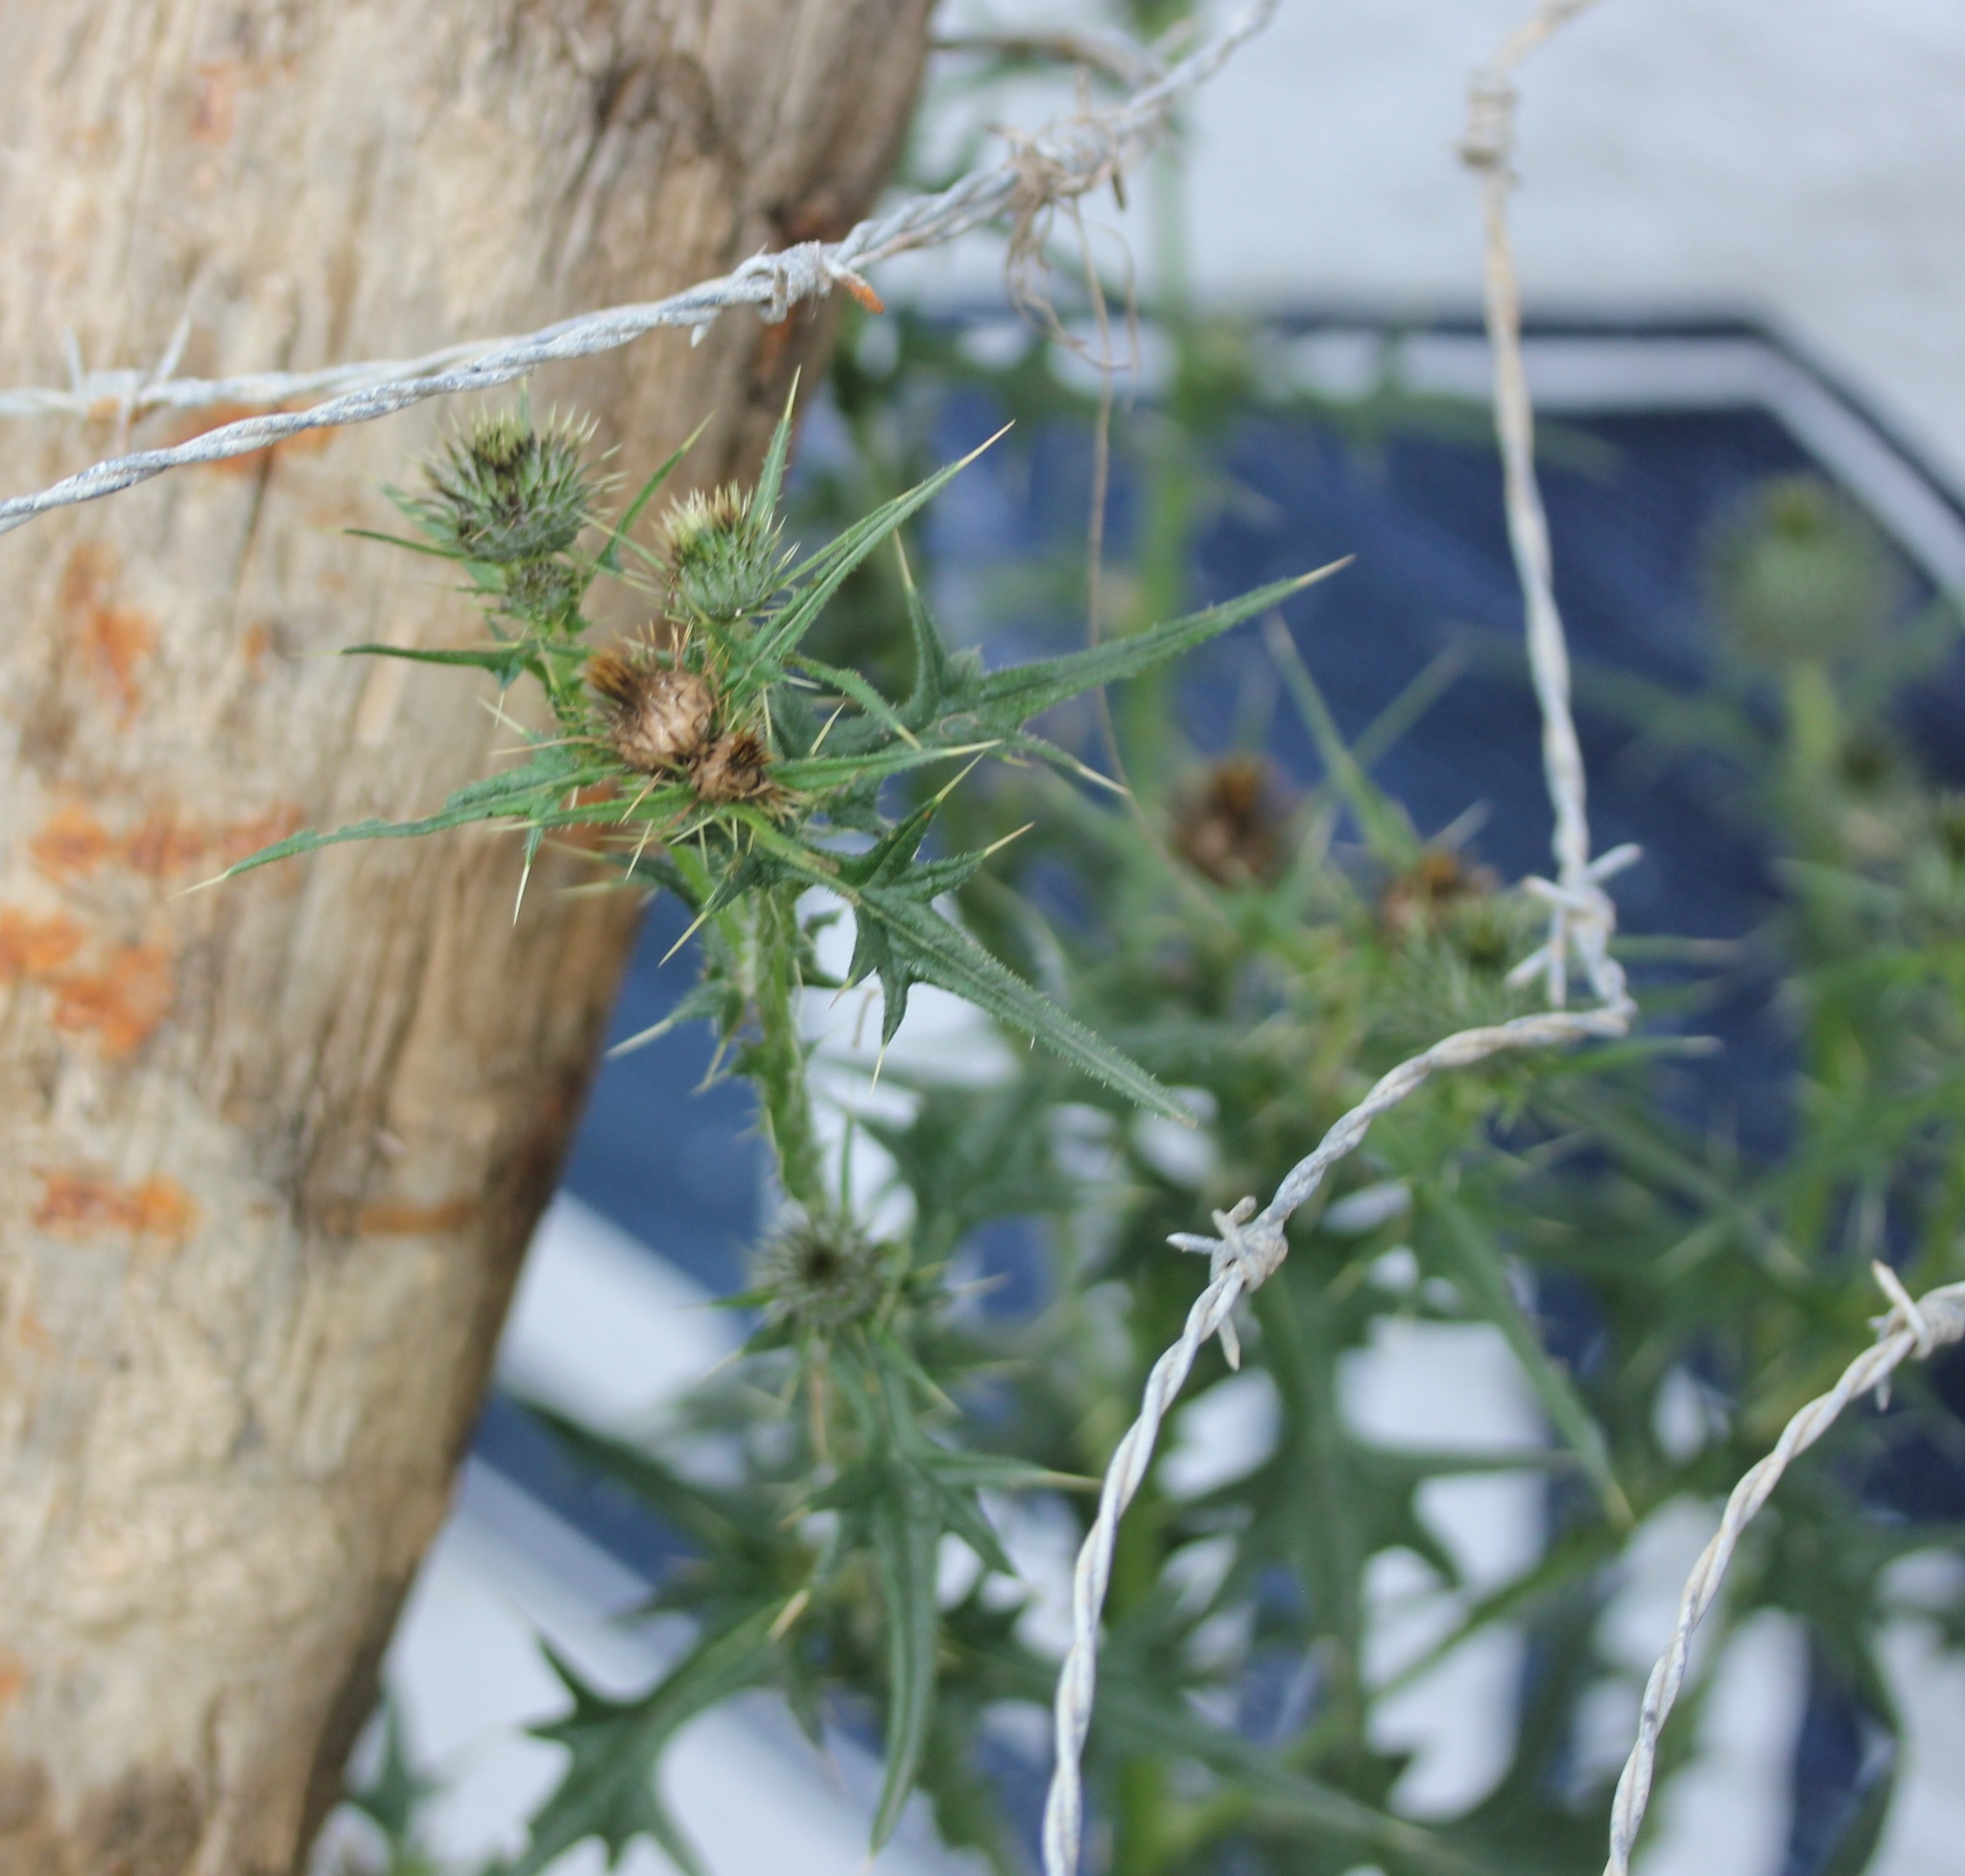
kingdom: Plantae
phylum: Tracheophyta
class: Magnoliopsida
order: Asterales
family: Asteraceae
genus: Cirsium
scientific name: Cirsium vulgare
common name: Bull thistle
